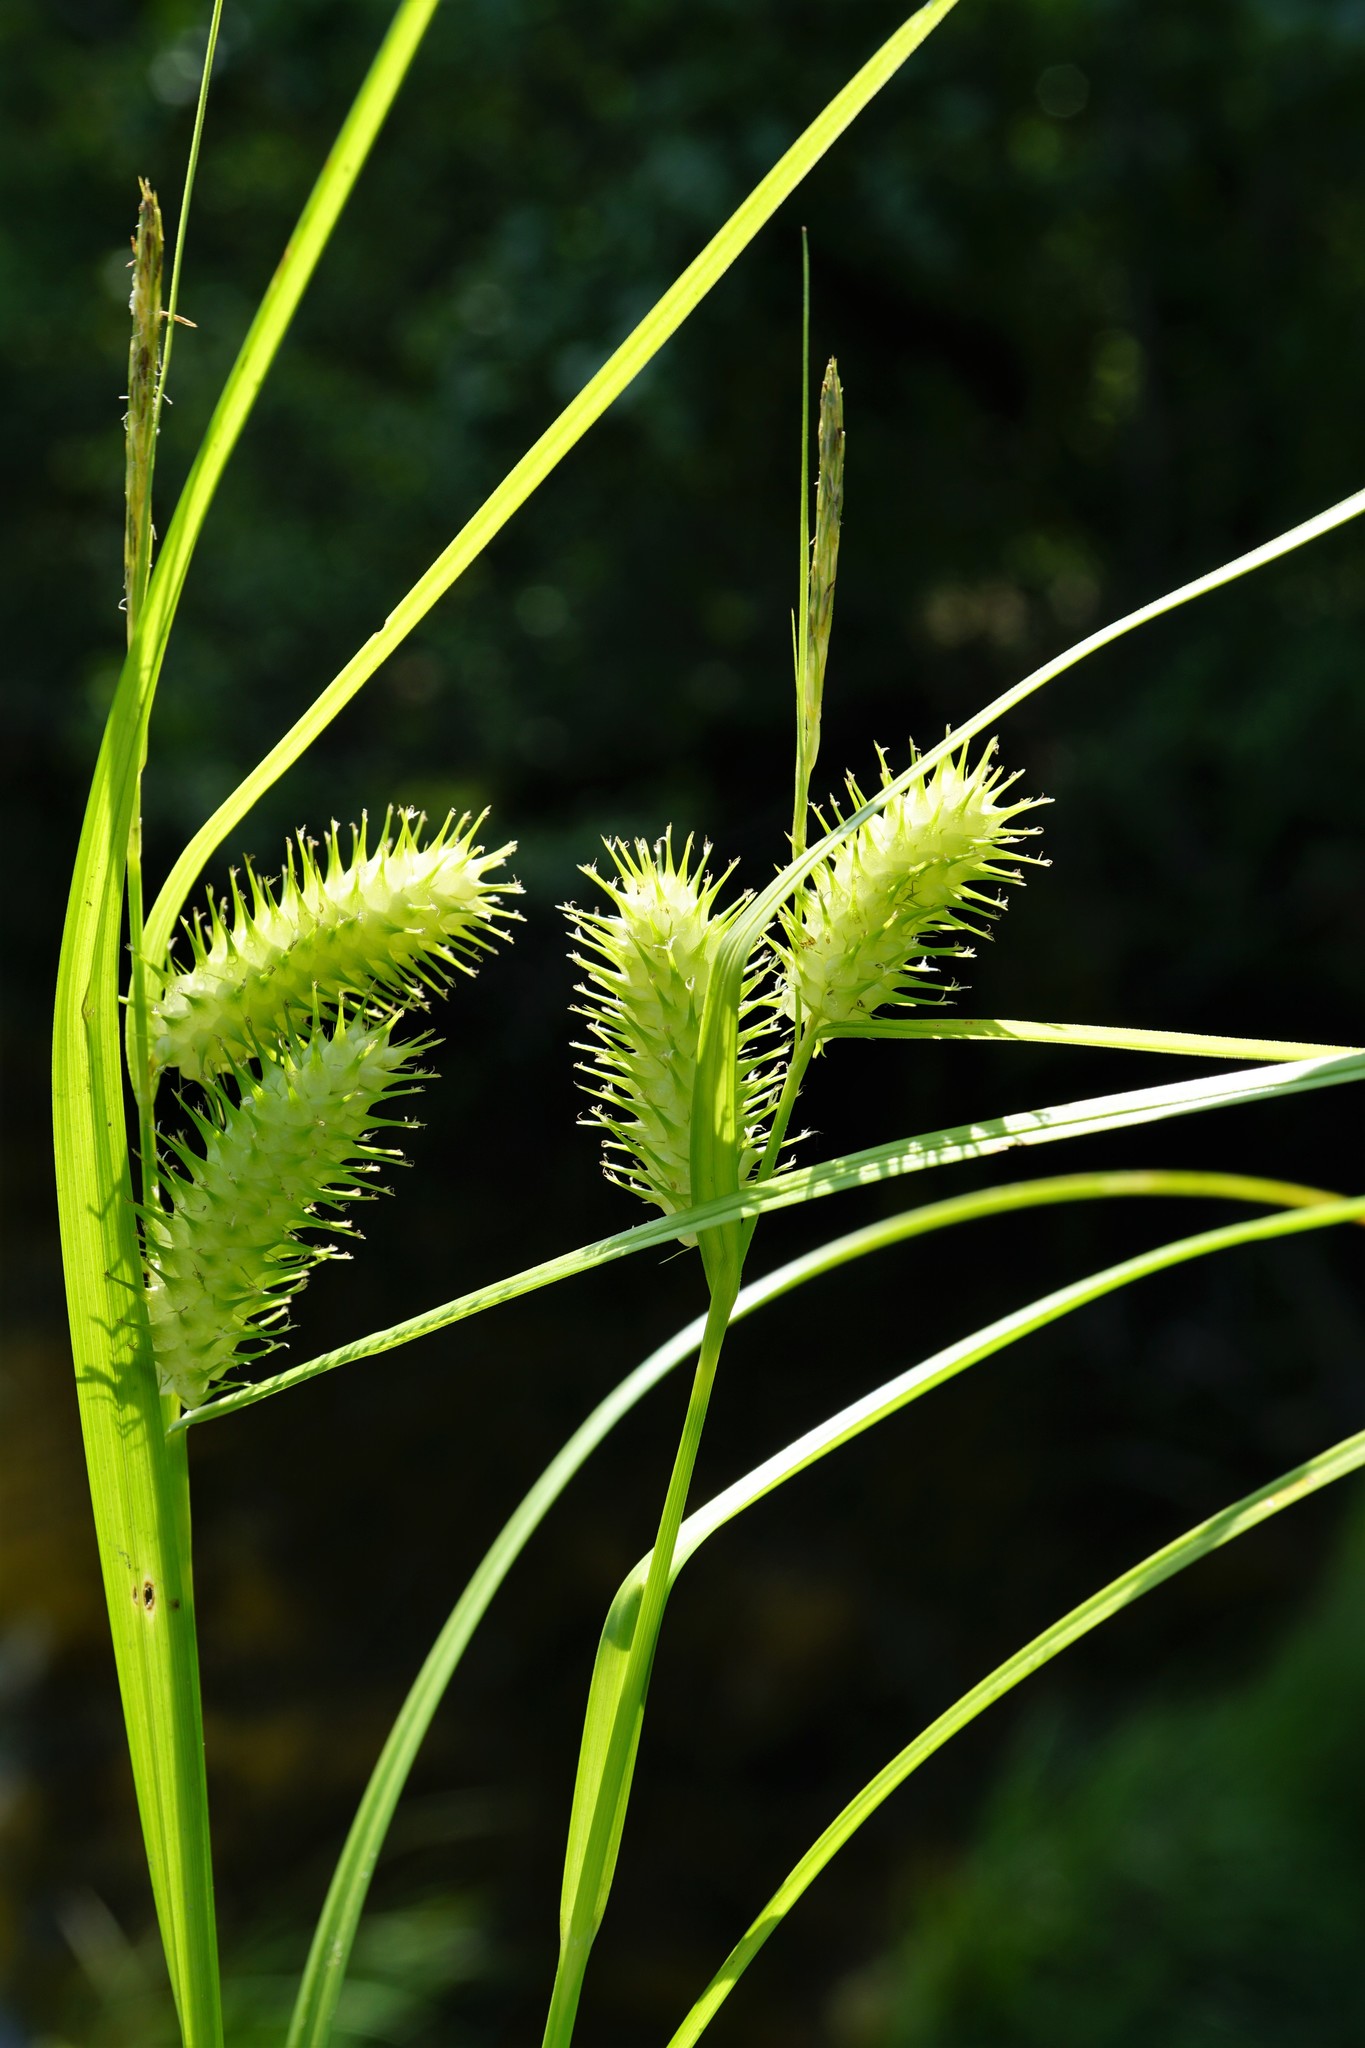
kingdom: Plantae
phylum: Tracheophyta
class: Liliopsida
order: Poales
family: Cyperaceae
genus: Carex
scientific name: Carex lurida
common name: Sallow sedge
